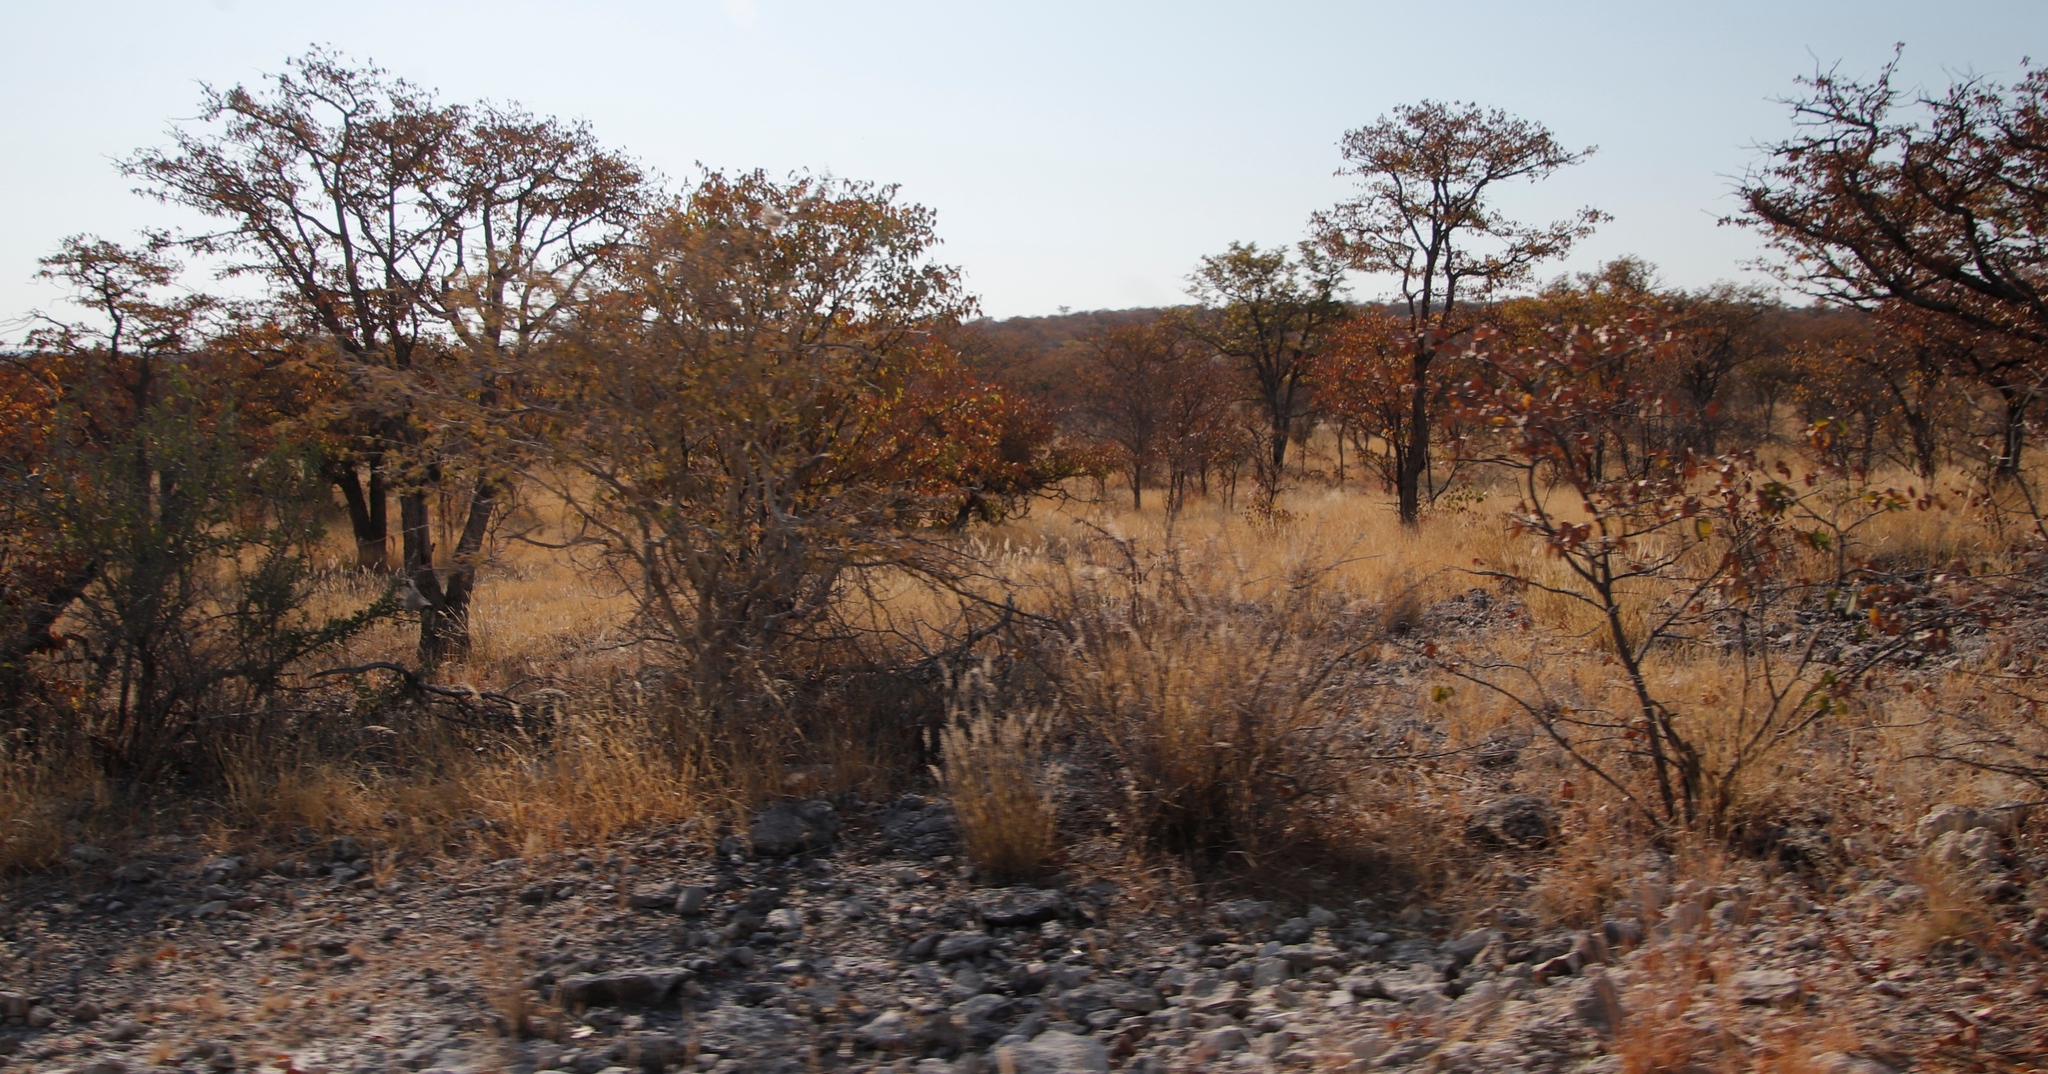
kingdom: Plantae
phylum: Tracheophyta
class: Magnoliopsida
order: Fabales
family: Fabaceae
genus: Colophospermum
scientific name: Colophospermum mopane
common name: Mopane
